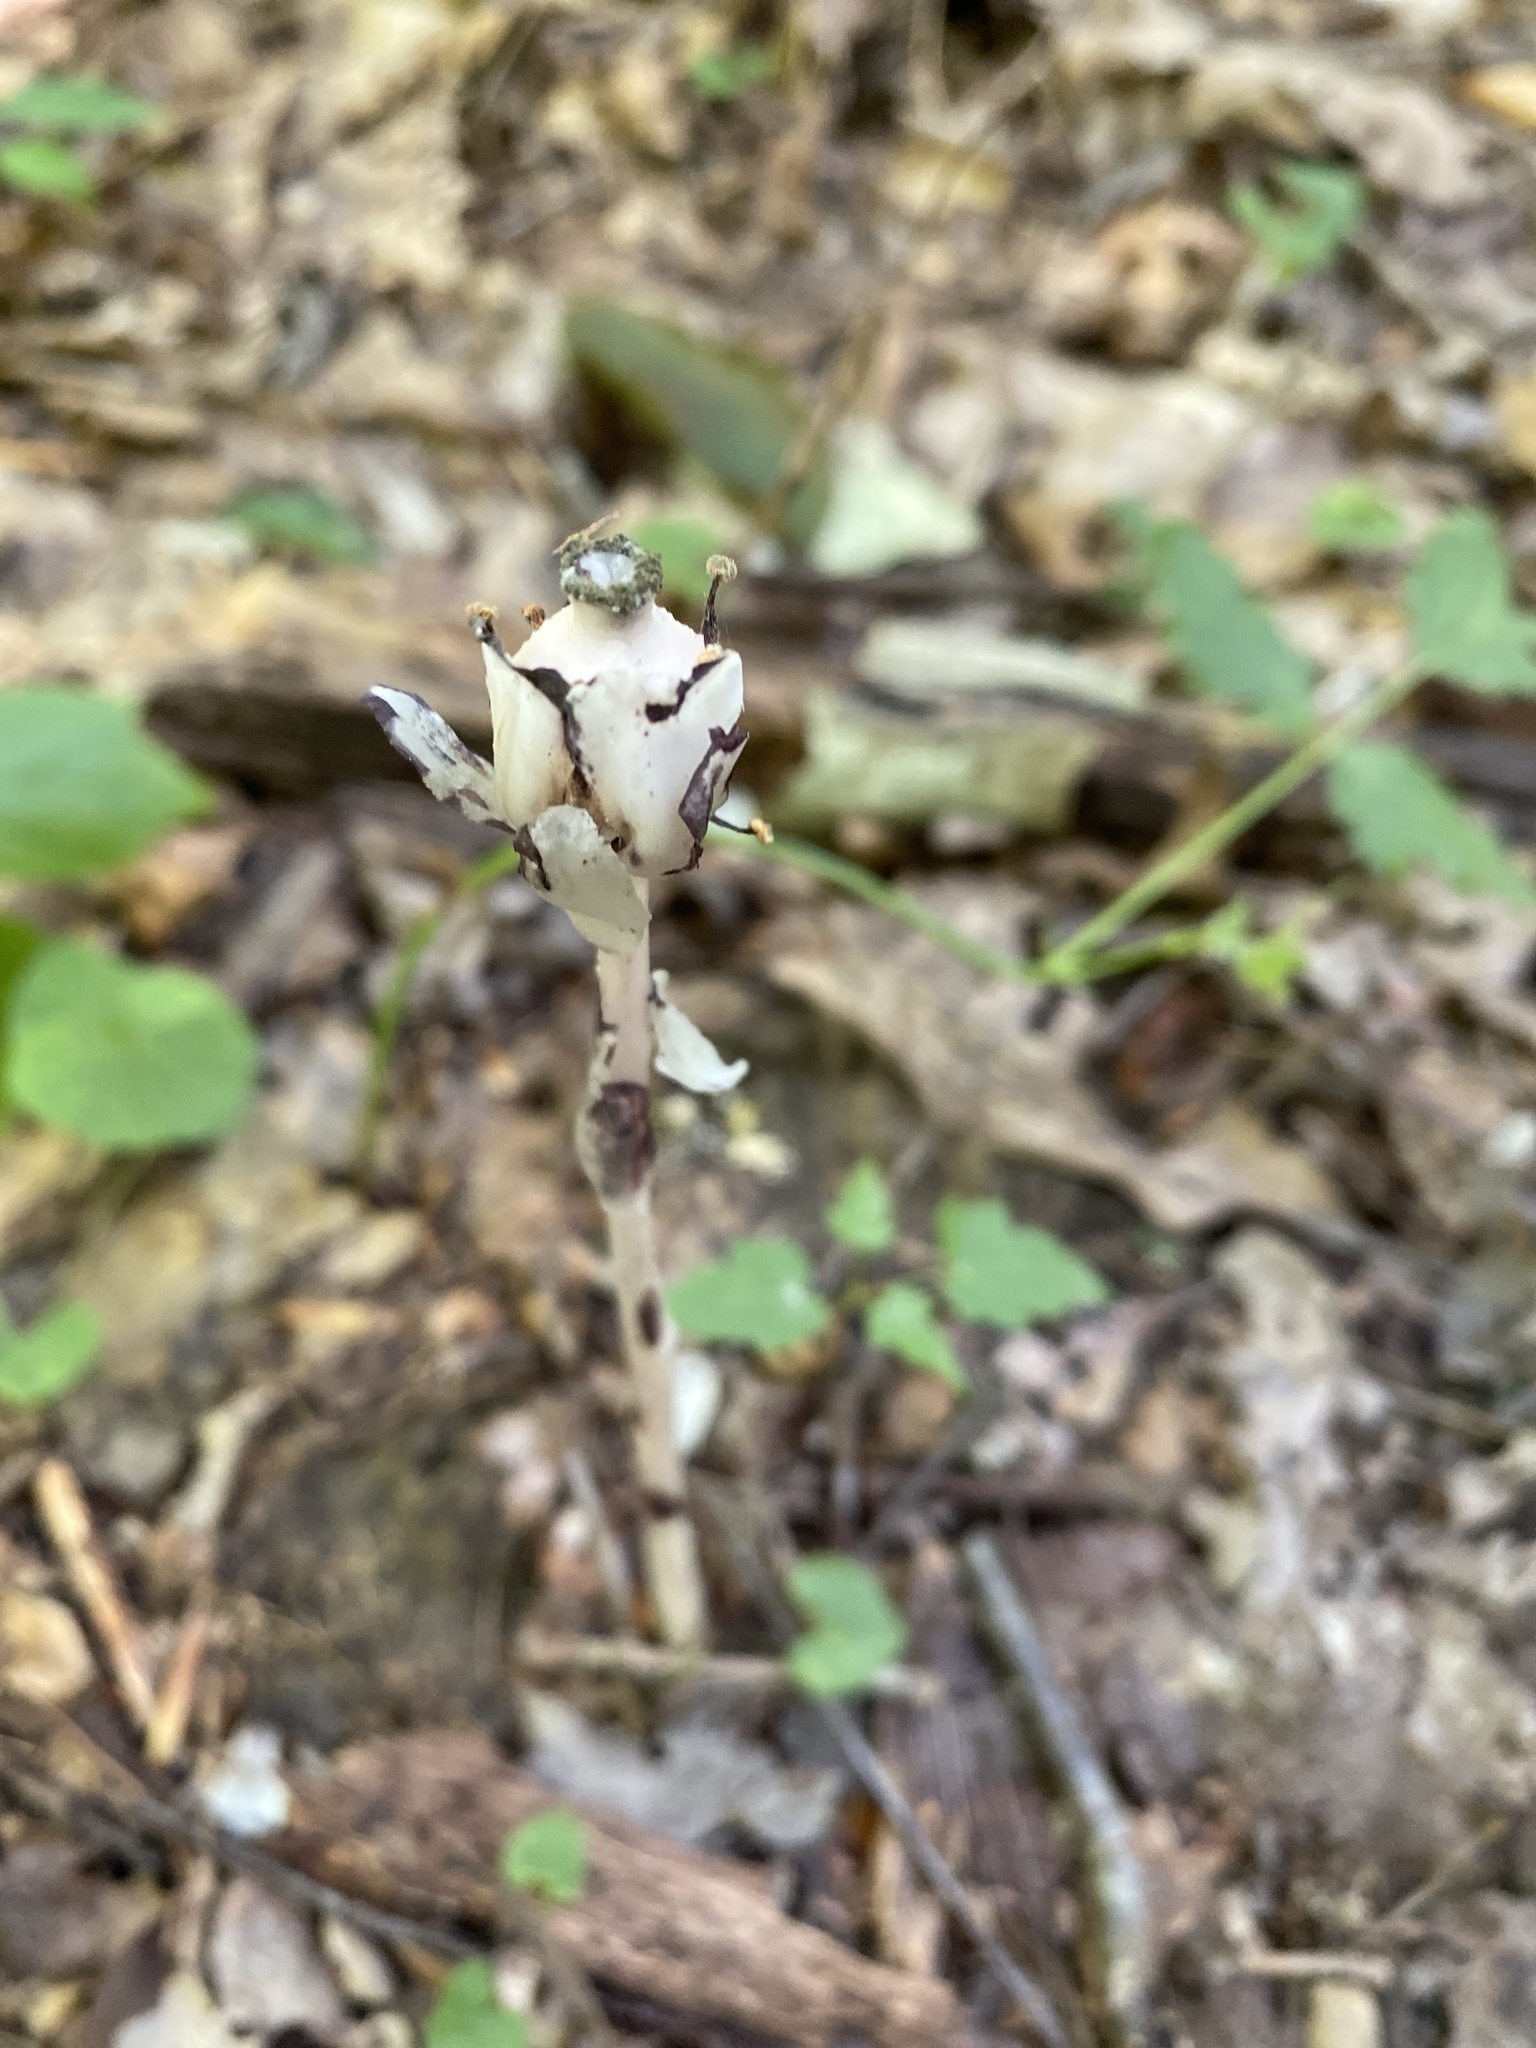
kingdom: Plantae
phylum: Tracheophyta
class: Magnoliopsida
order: Ericales
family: Ericaceae
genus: Monotropa
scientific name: Monotropa uniflora
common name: Convulsion root
